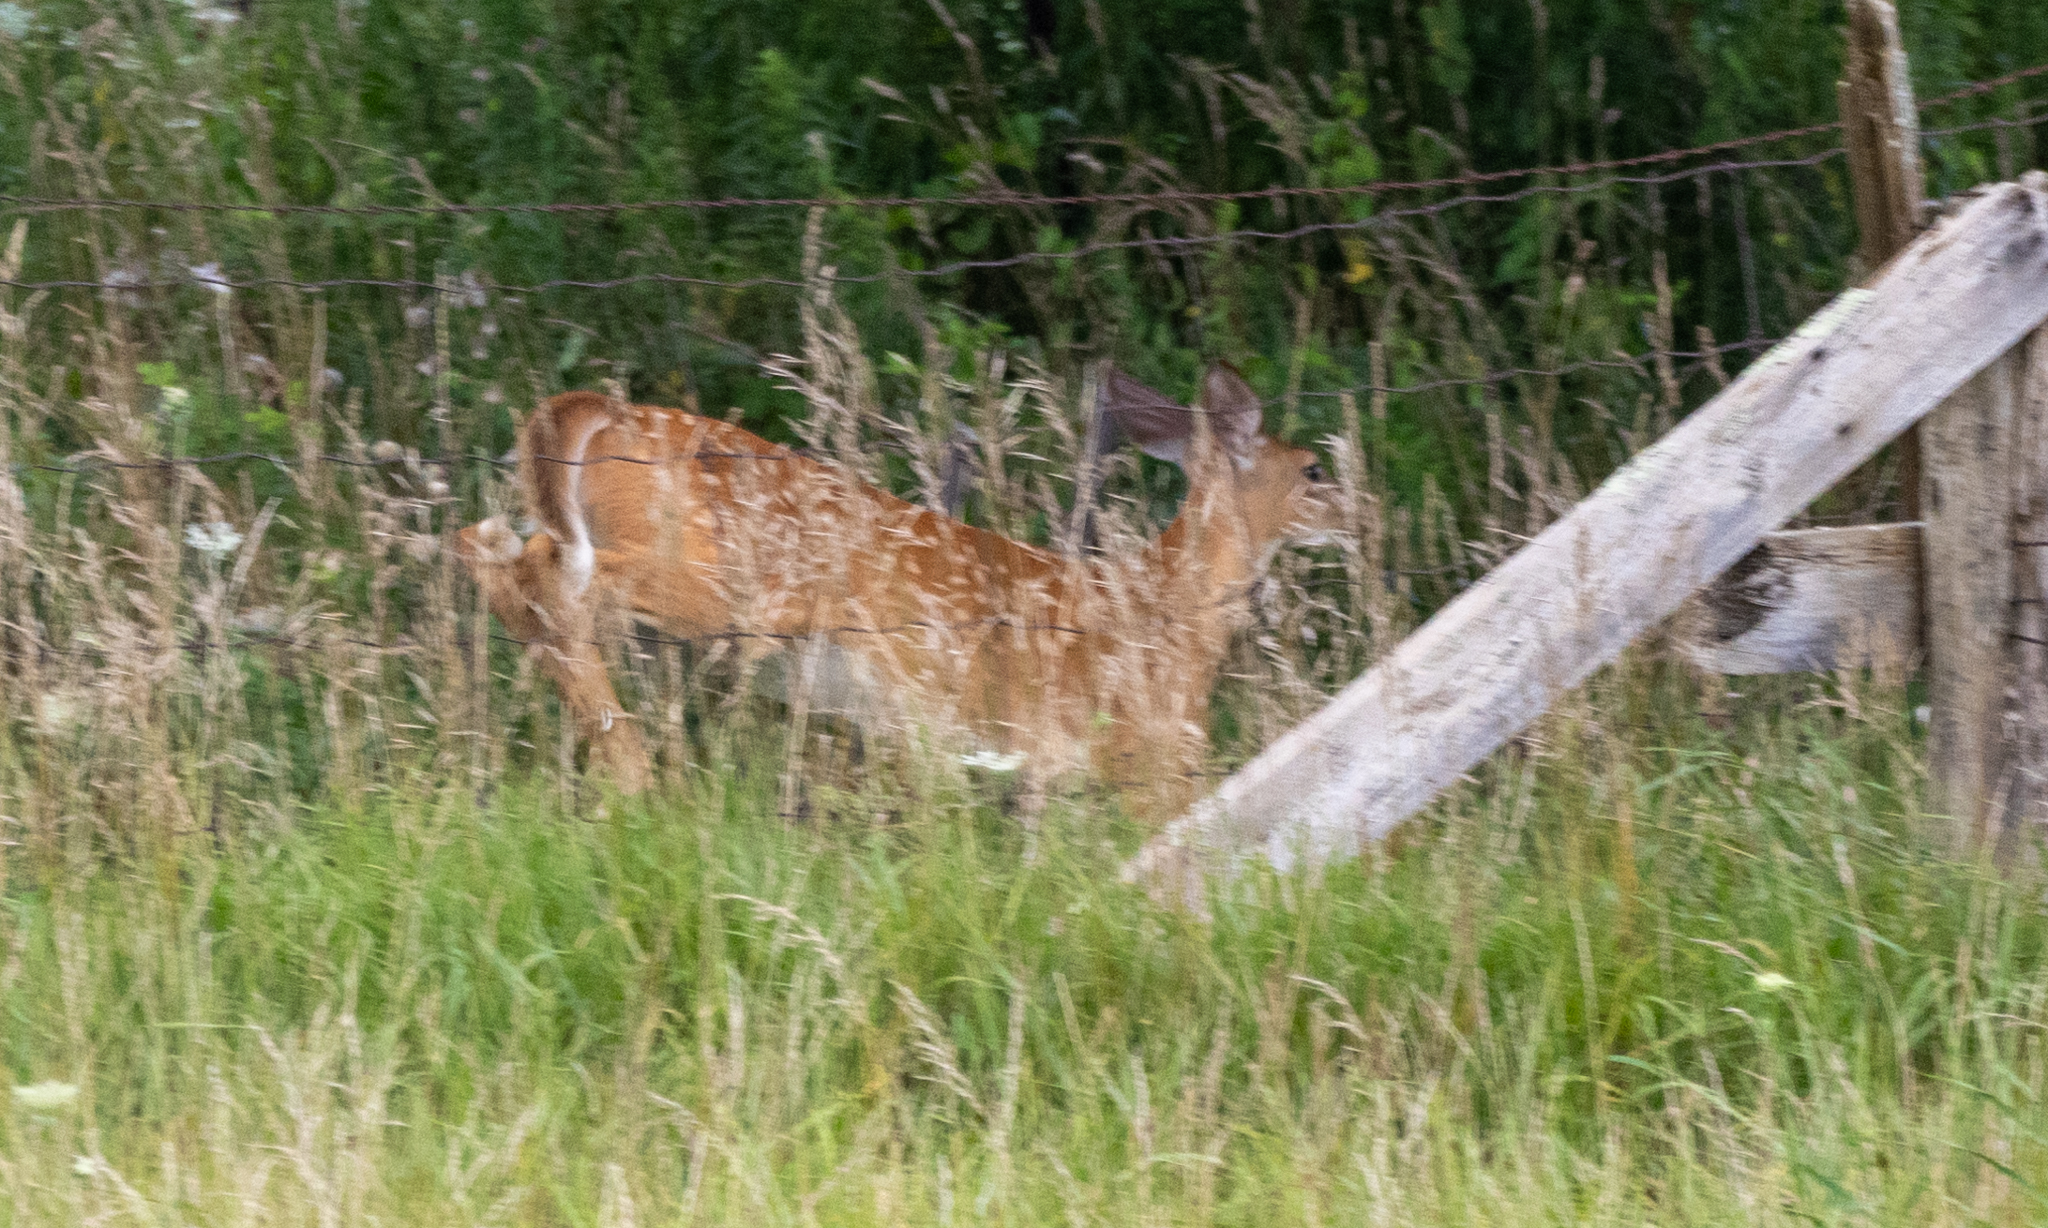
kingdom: Animalia
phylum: Chordata
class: Mammalia
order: Artiodactyla
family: Cervidae
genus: Odocoileus
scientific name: Odocoileus virginianus
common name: White-tailed deer
